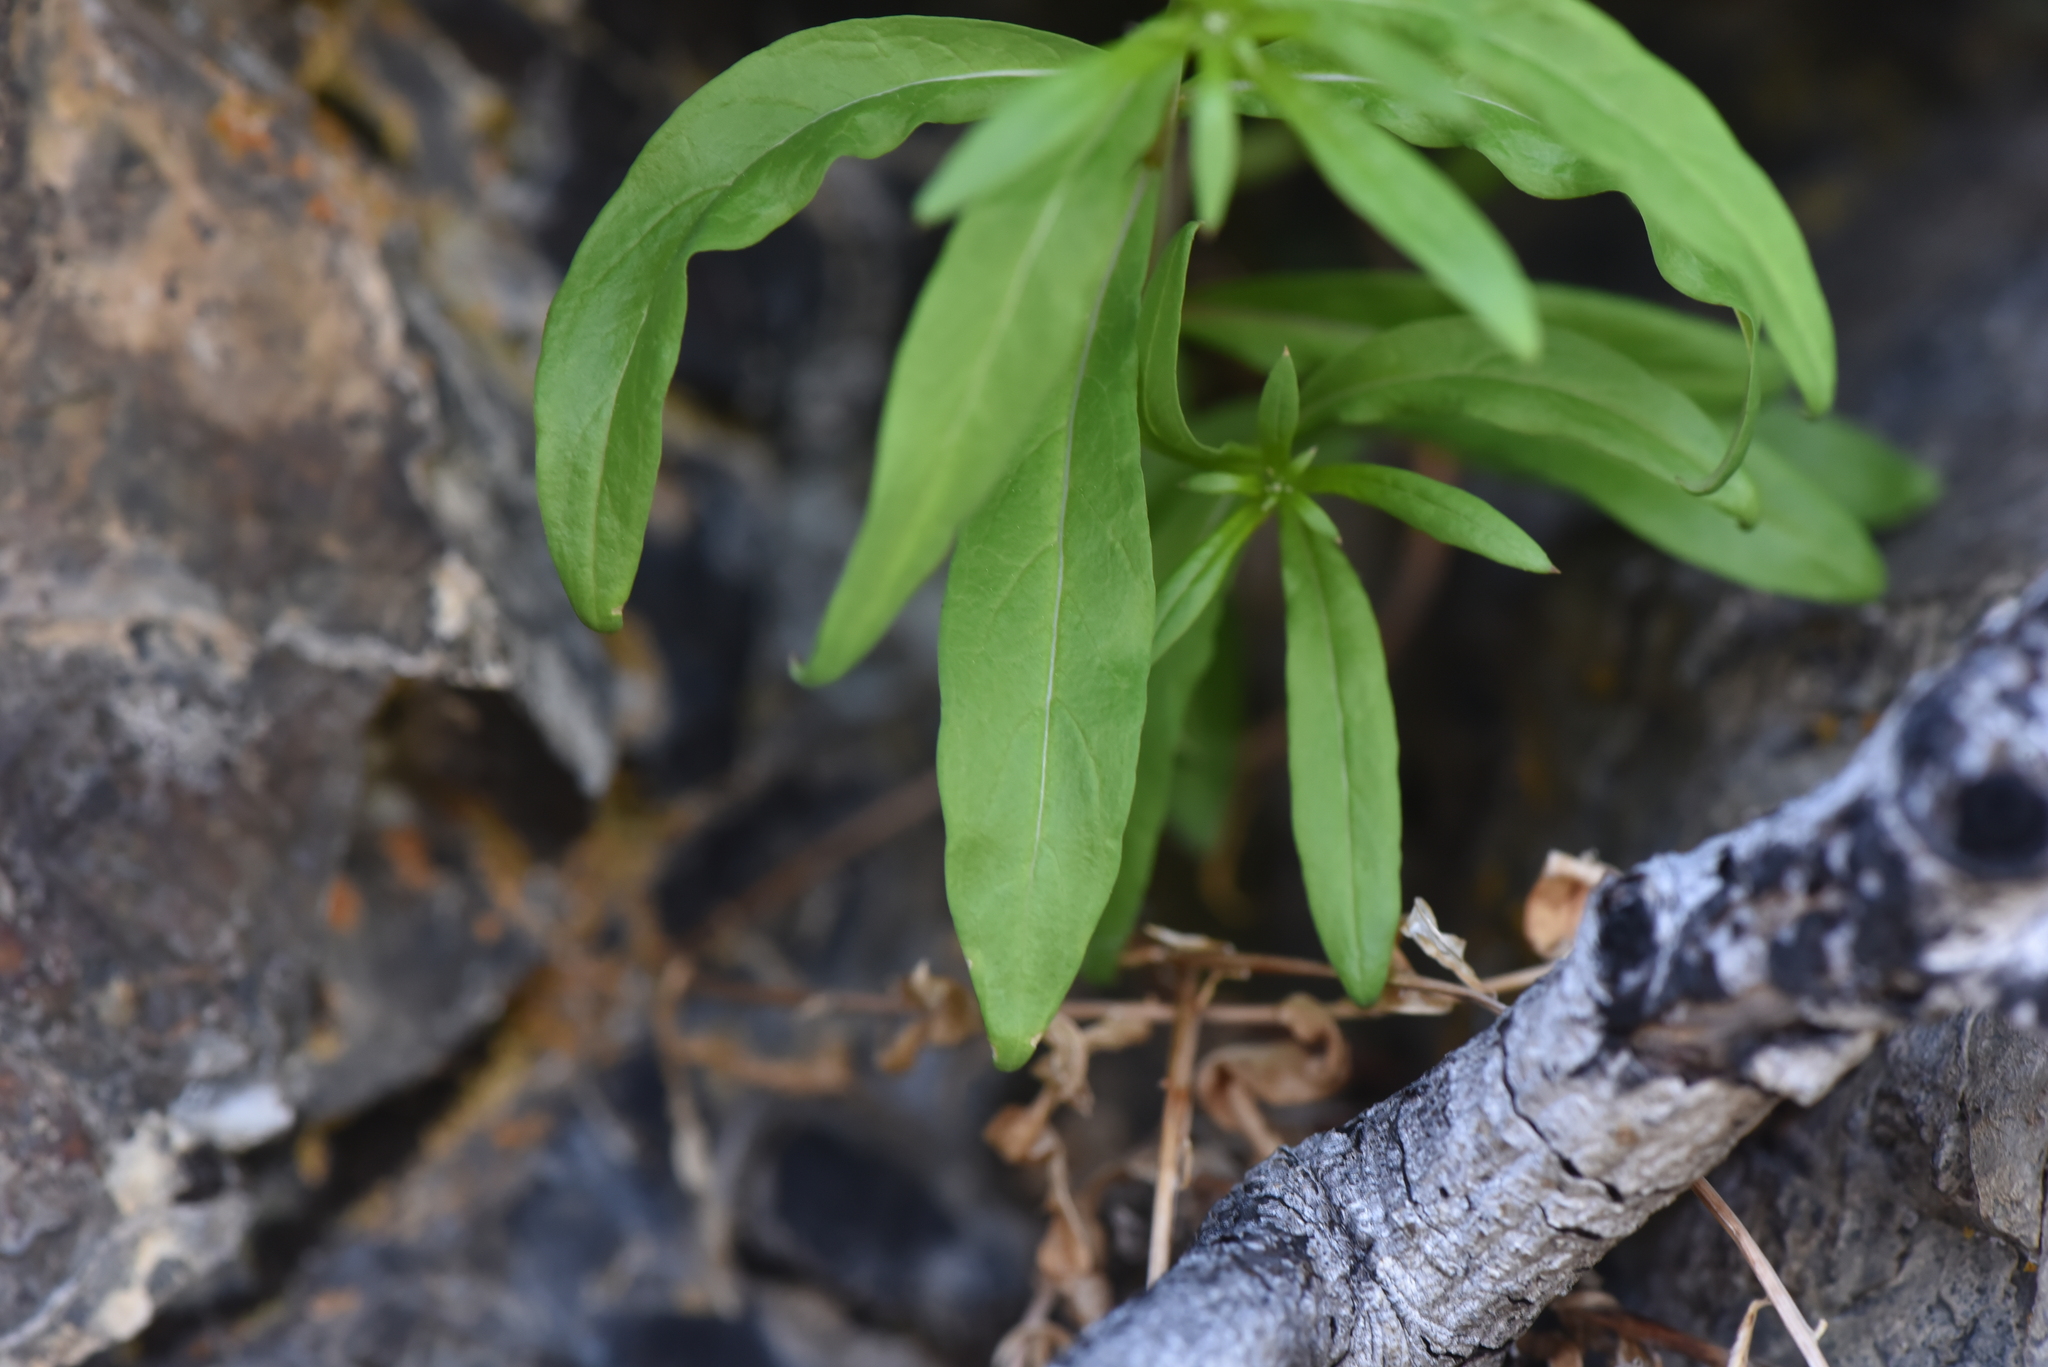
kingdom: Plantae
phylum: Tracheophyta
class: Magnoliopsida
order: Myrtales
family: Onagraceae
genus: Chamaenerion
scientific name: Chamaenerion angustifolium
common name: Fireweed
